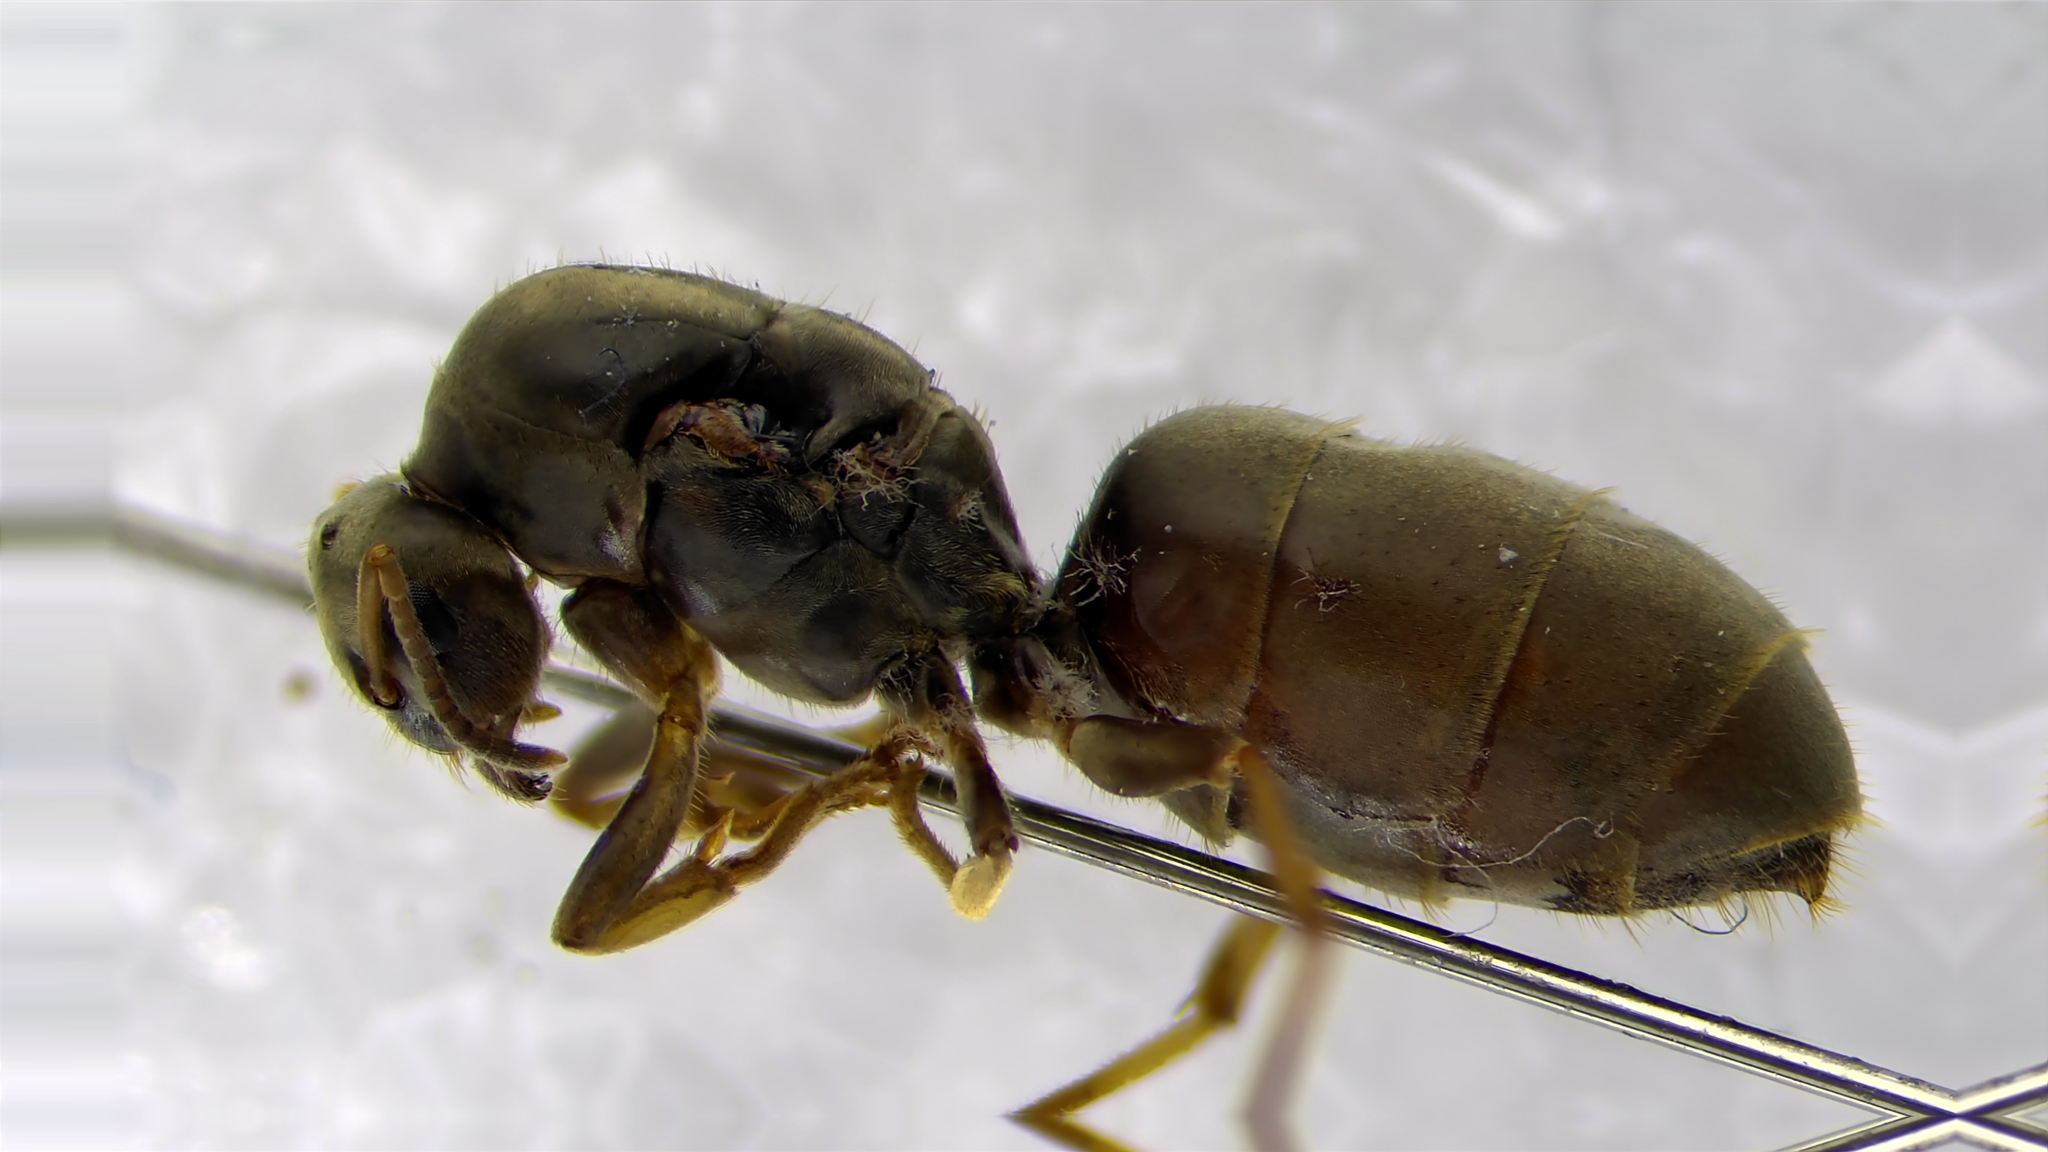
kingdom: Animalia
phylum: Arthropoda
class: Insecta
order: Hymenoptera
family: Formicidae
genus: Lasius
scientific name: Lasius neoniger
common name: Turfgrass ant
